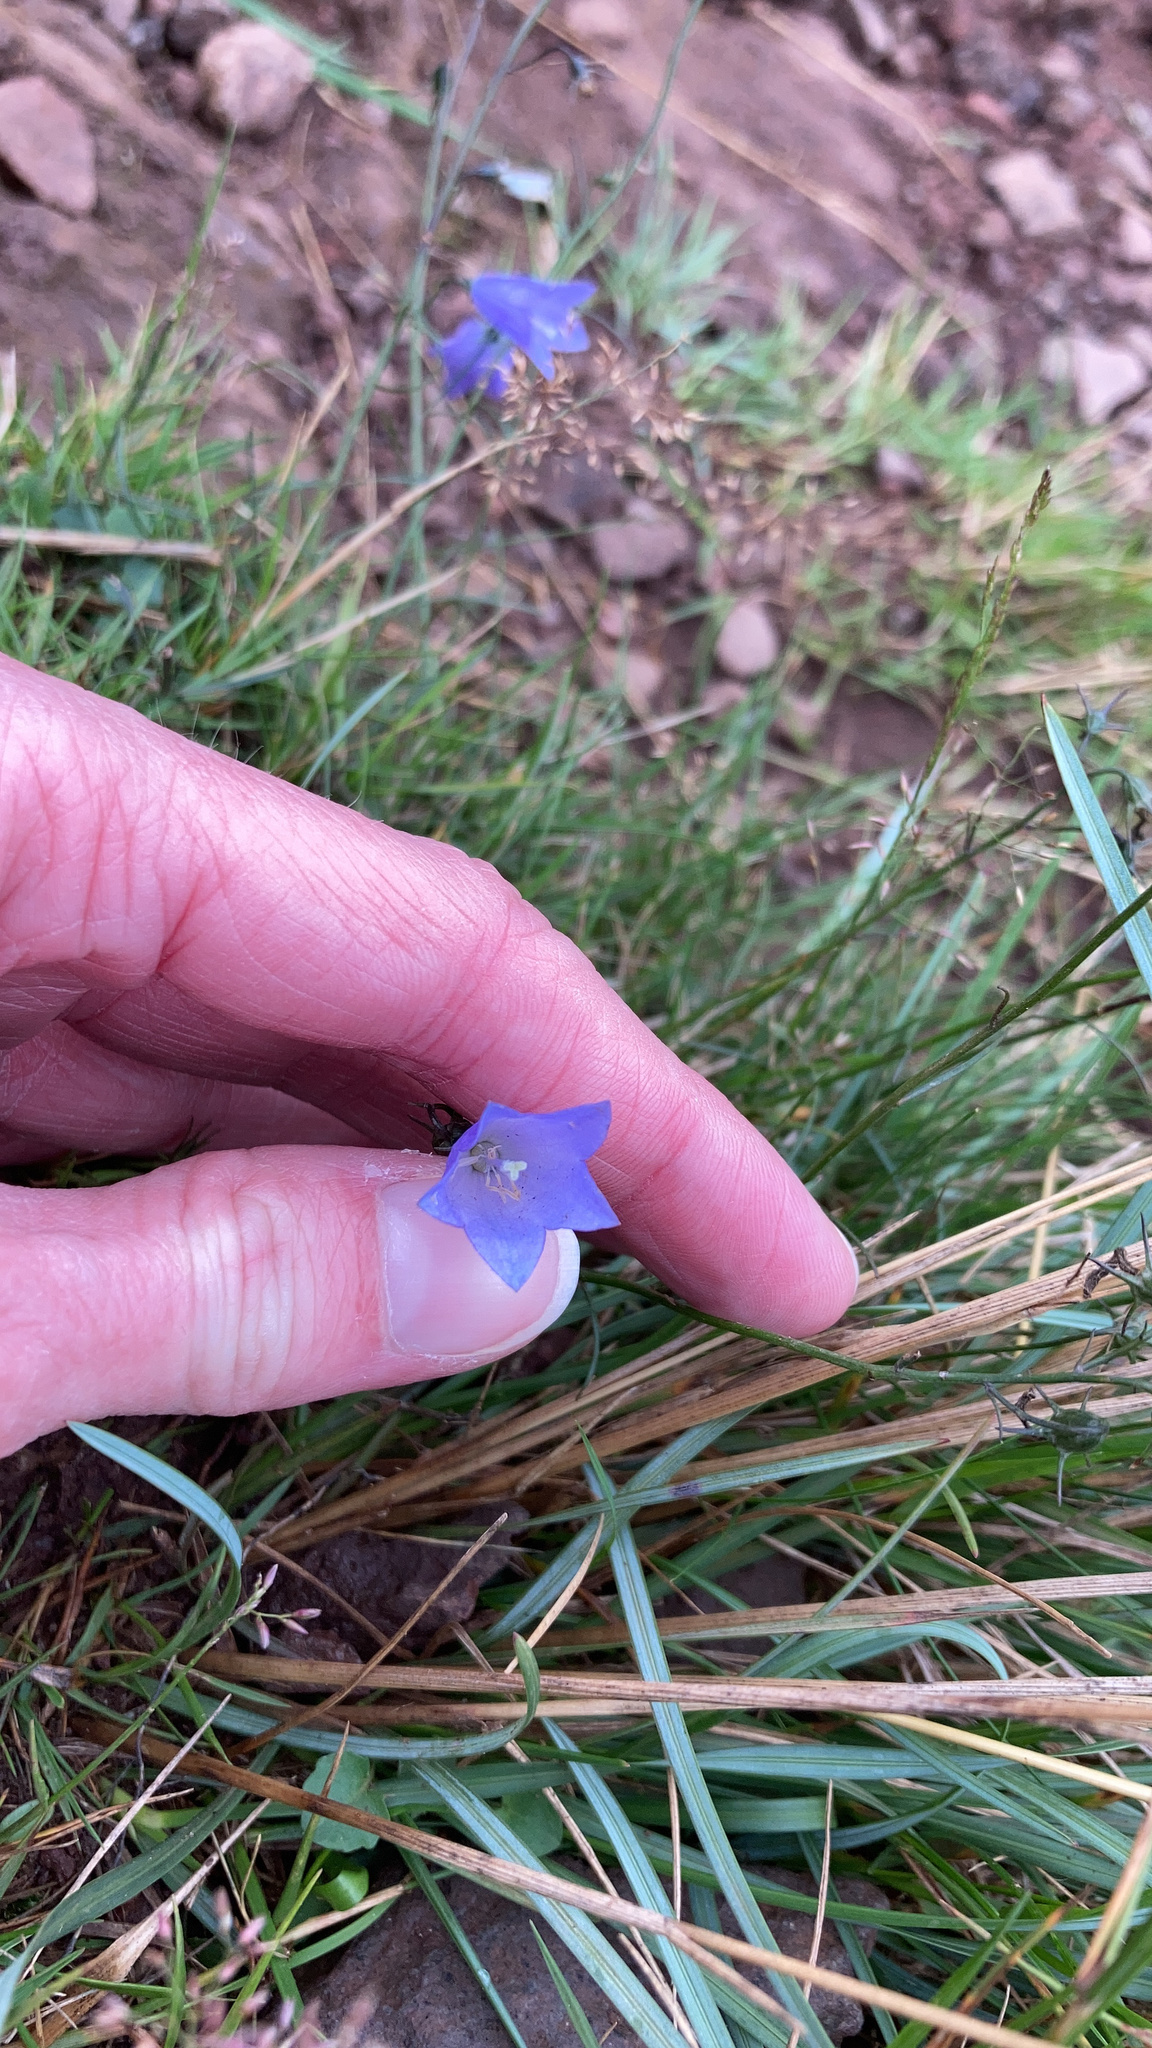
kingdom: Plantae
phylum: Tracheophyta
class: Magnoliopsida
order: Asterales
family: Campanulaceae
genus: Campanula
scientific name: Campanula rotundifolia
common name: Harebell
